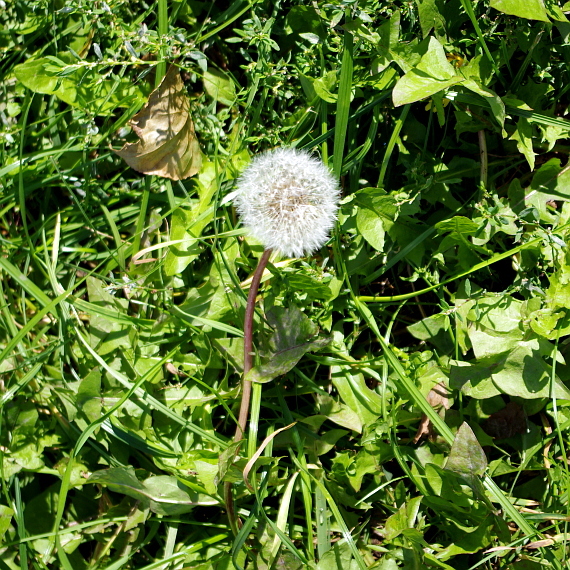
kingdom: Plantae
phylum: Tracheophyta
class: Magnoliopsida
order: Asterales
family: Asteraceae
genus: Taraxacum
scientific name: Taraxacum officinale
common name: Common dandelion
